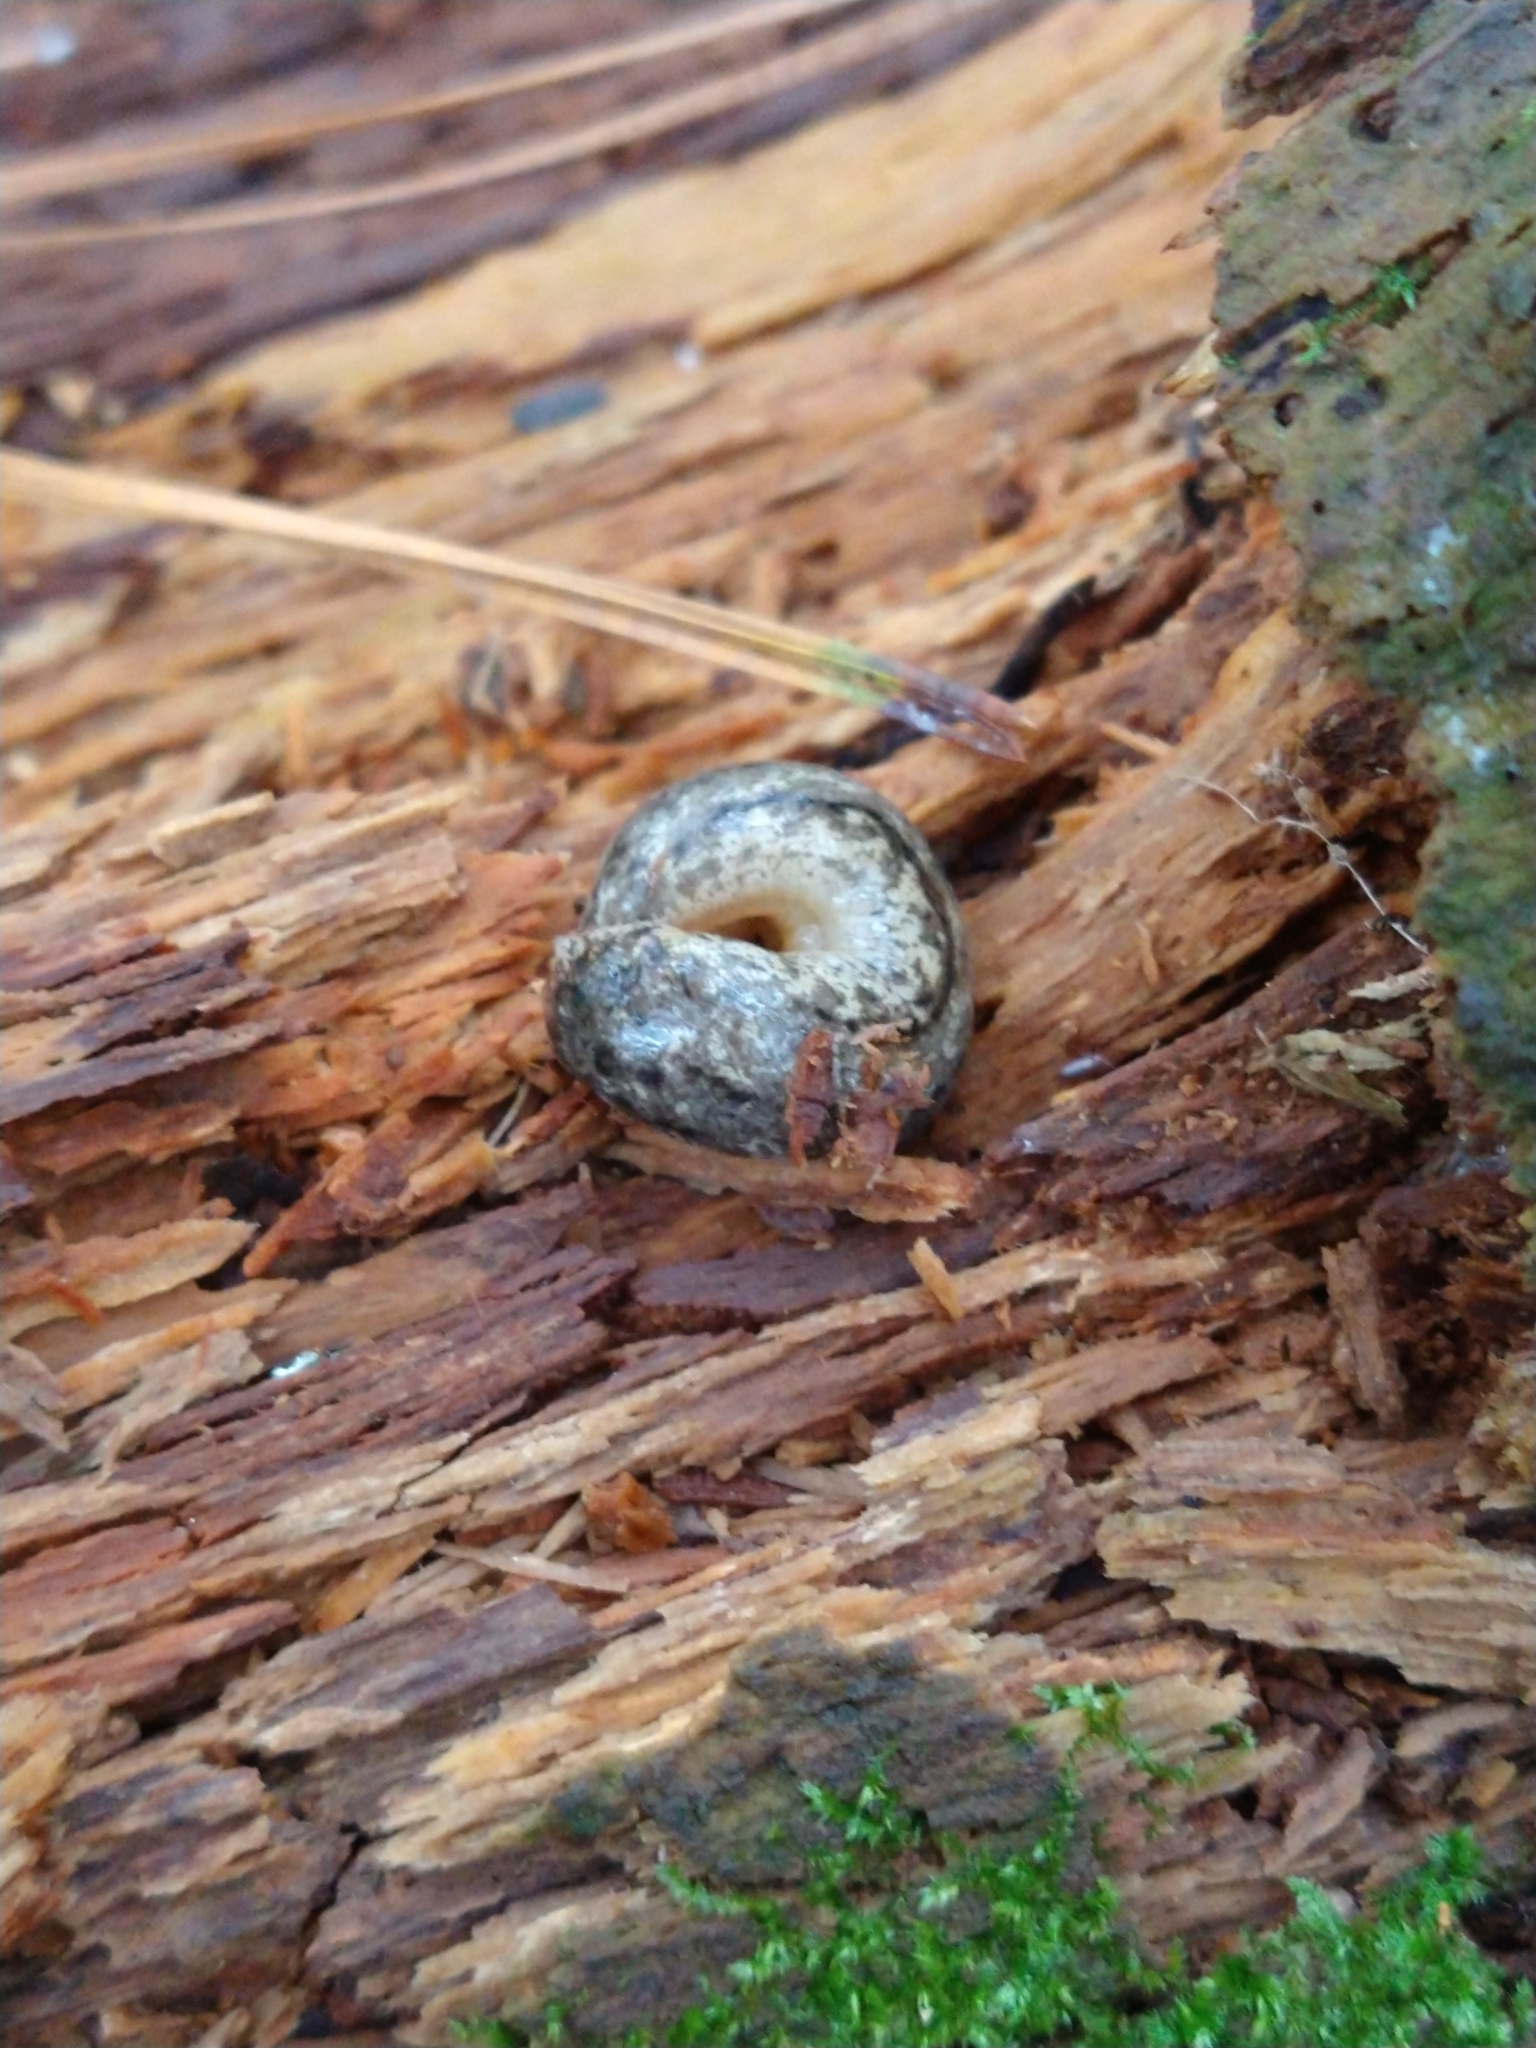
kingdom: Animalia
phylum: Mollusca
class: Gastropoda
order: Stylommatophora
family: Philomycidae
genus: Philomycus
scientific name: Philomycus carolinianus
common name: Carolina mantleslug
